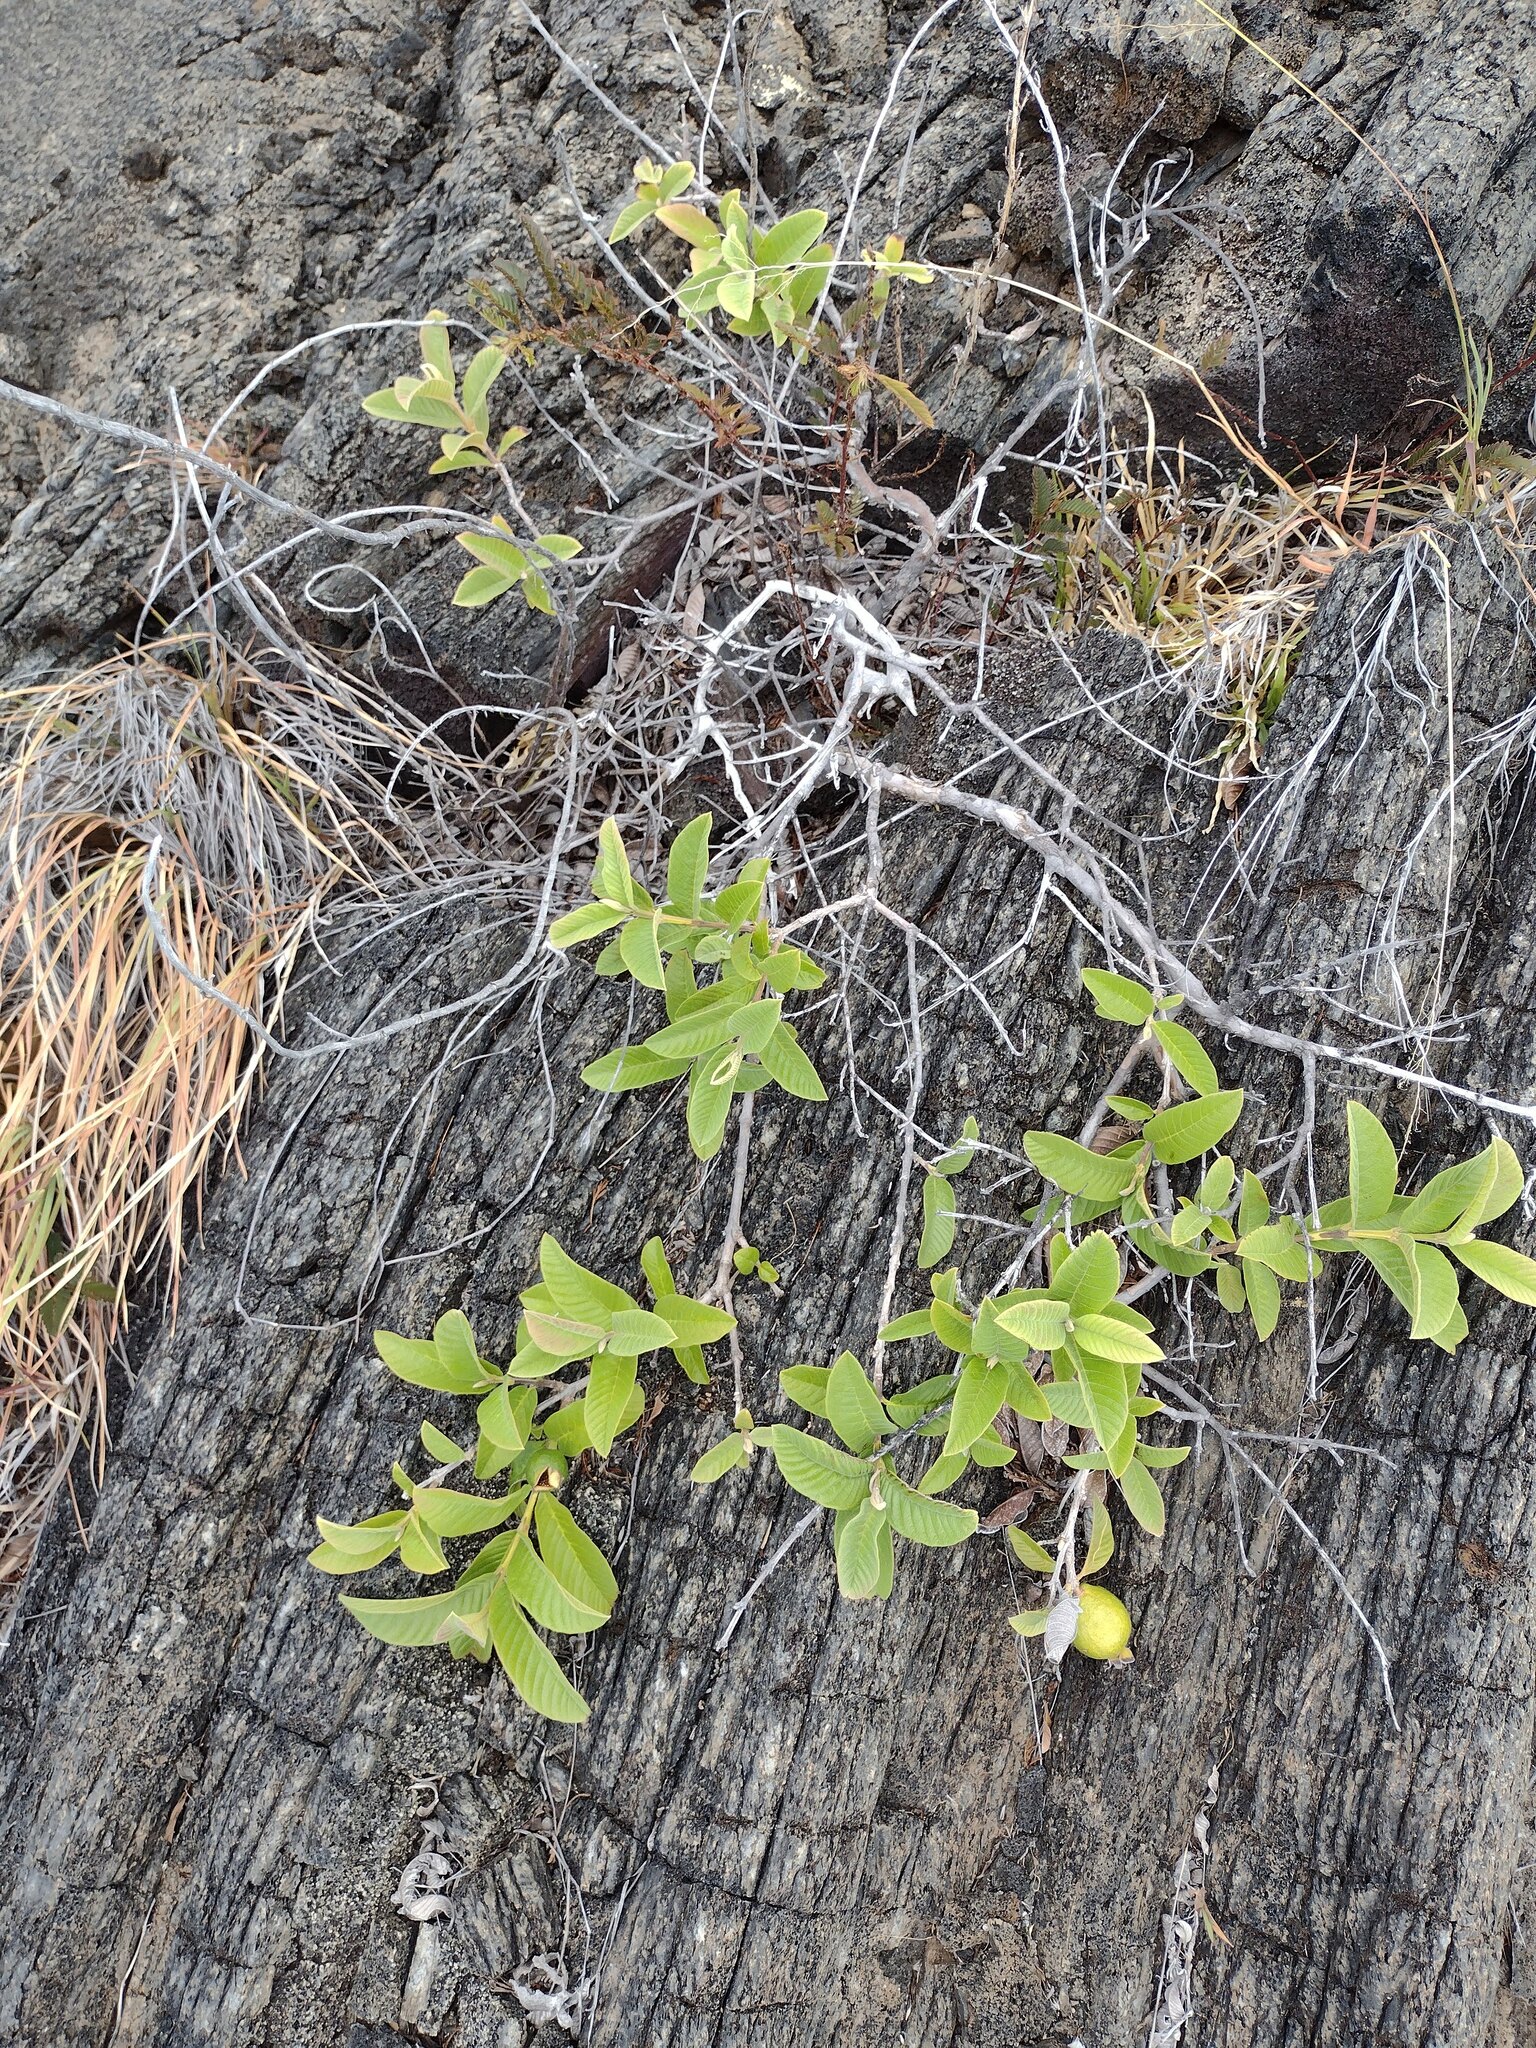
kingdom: Plantae
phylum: Tracheophyta
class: Magnoliopsida
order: Myrtales
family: Myrtaceae
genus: Psidium
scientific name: Psidium guajava
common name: Guava
